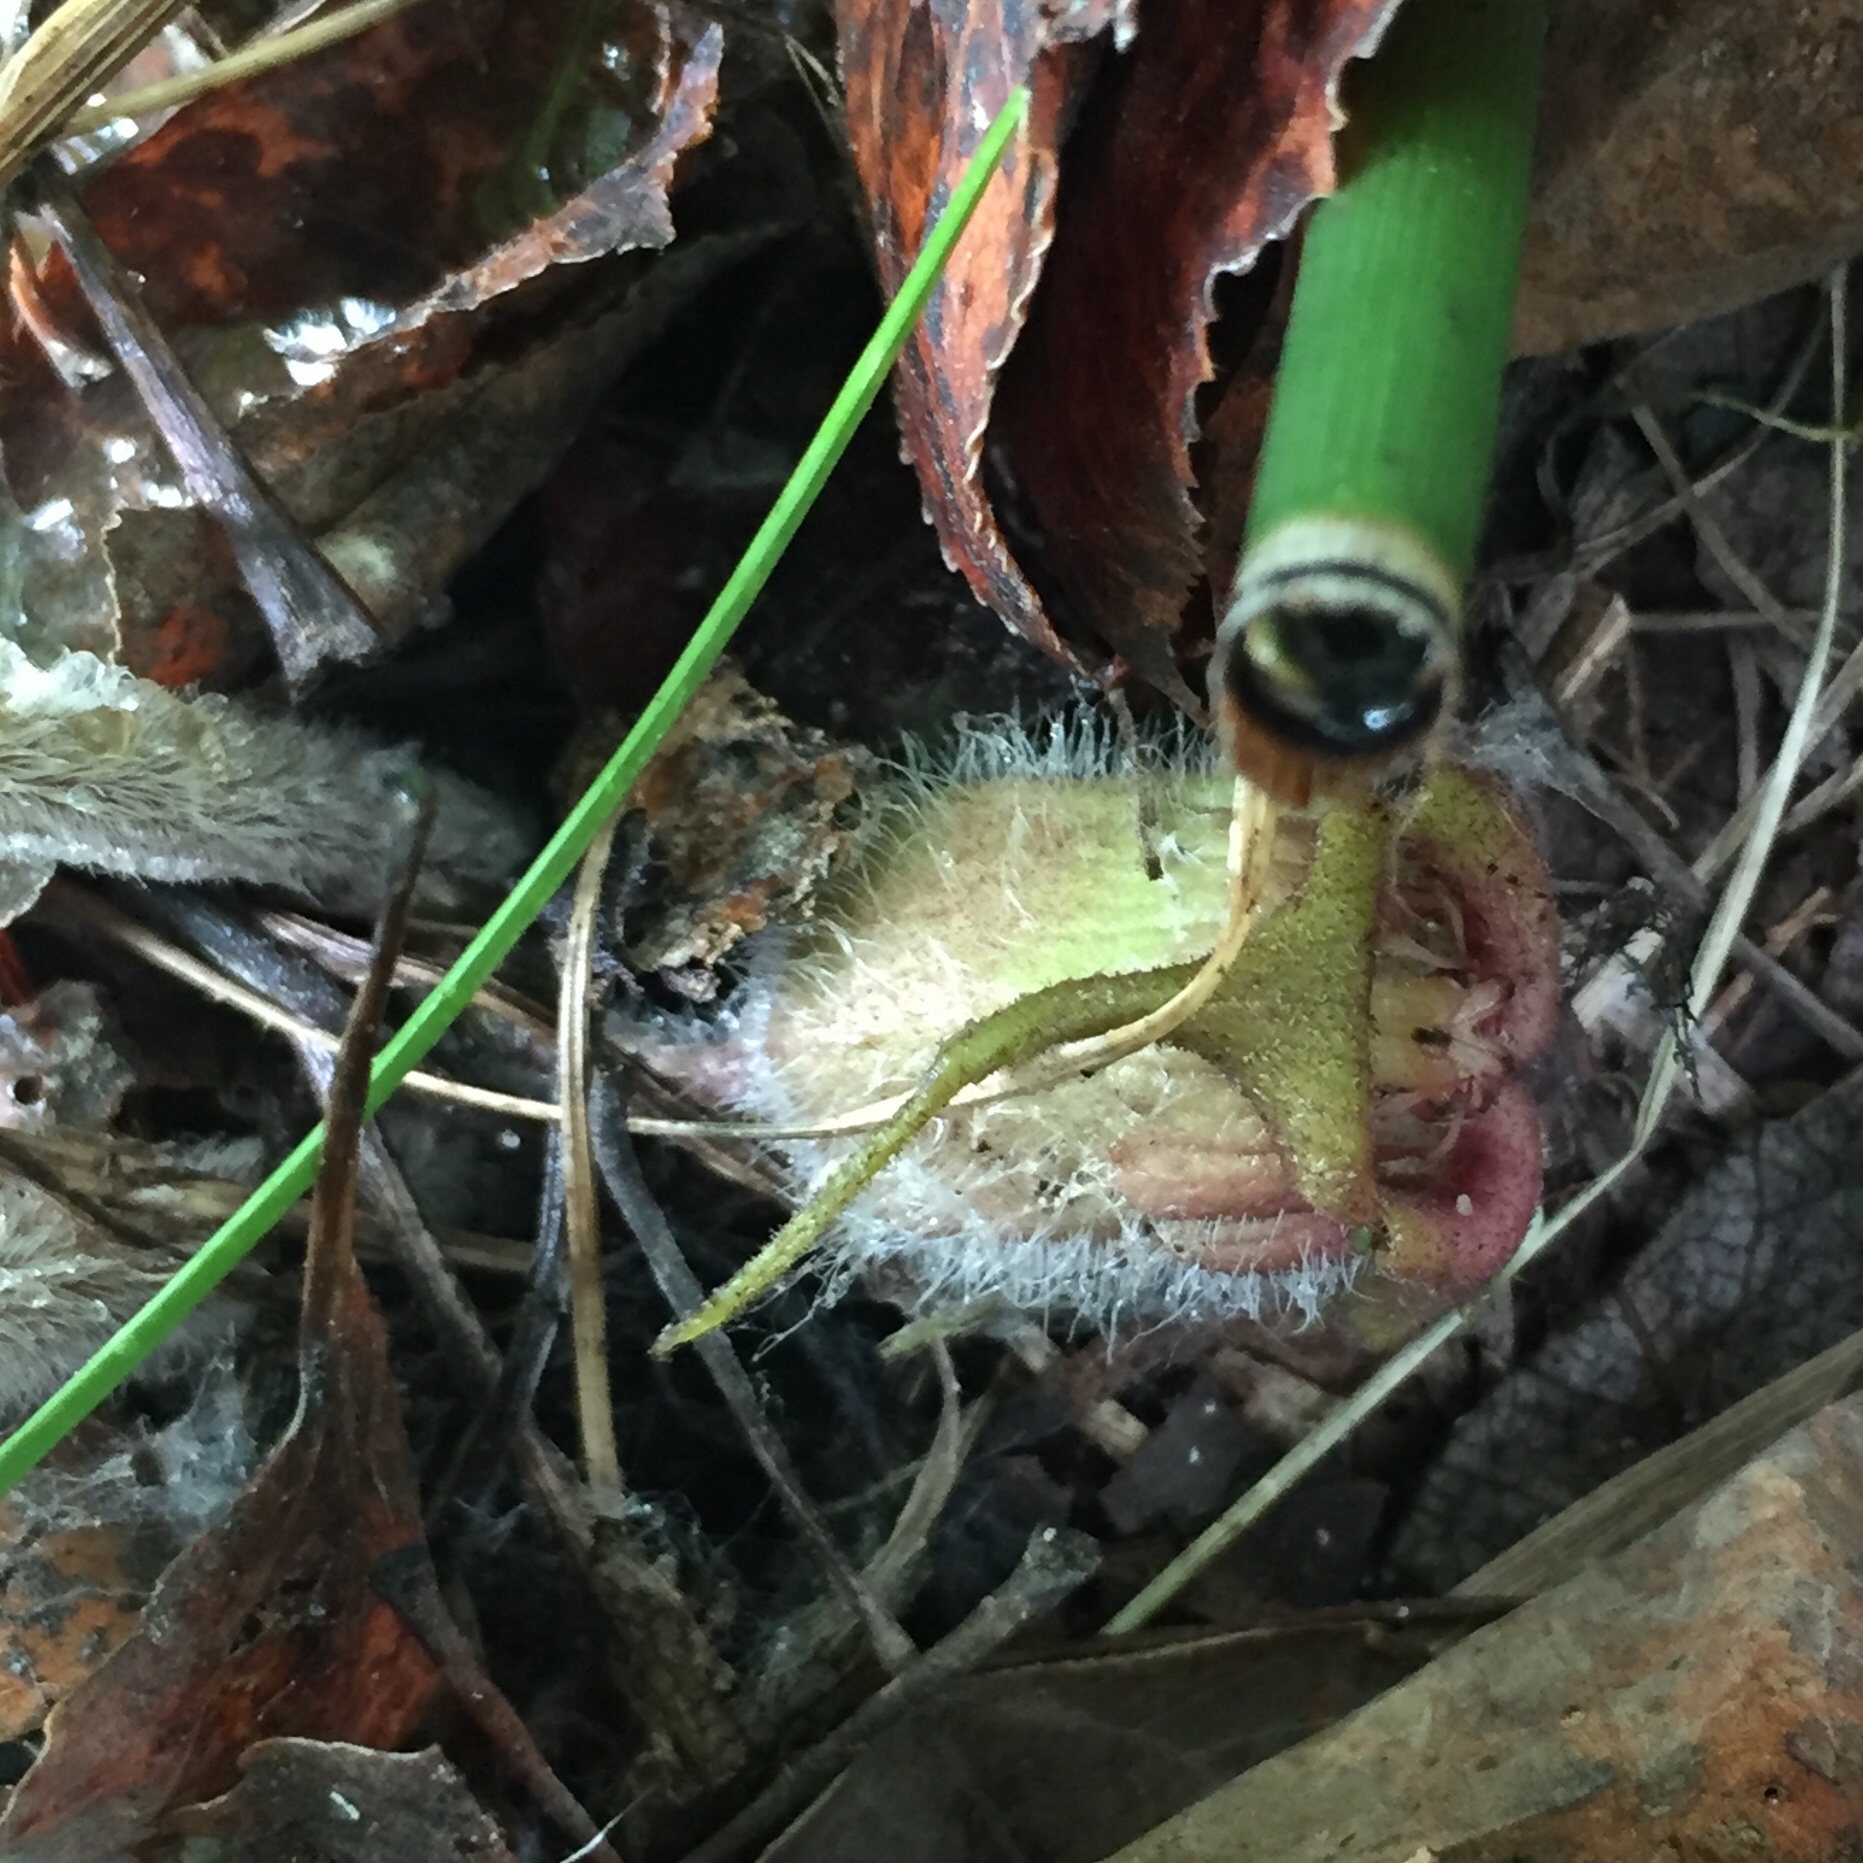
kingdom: Plantae
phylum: Tracheophyta
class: Magnoliopsida
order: Piperales
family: Aristolochiaceae
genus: Asarum
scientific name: Asarum canadense
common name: Wild ginger
